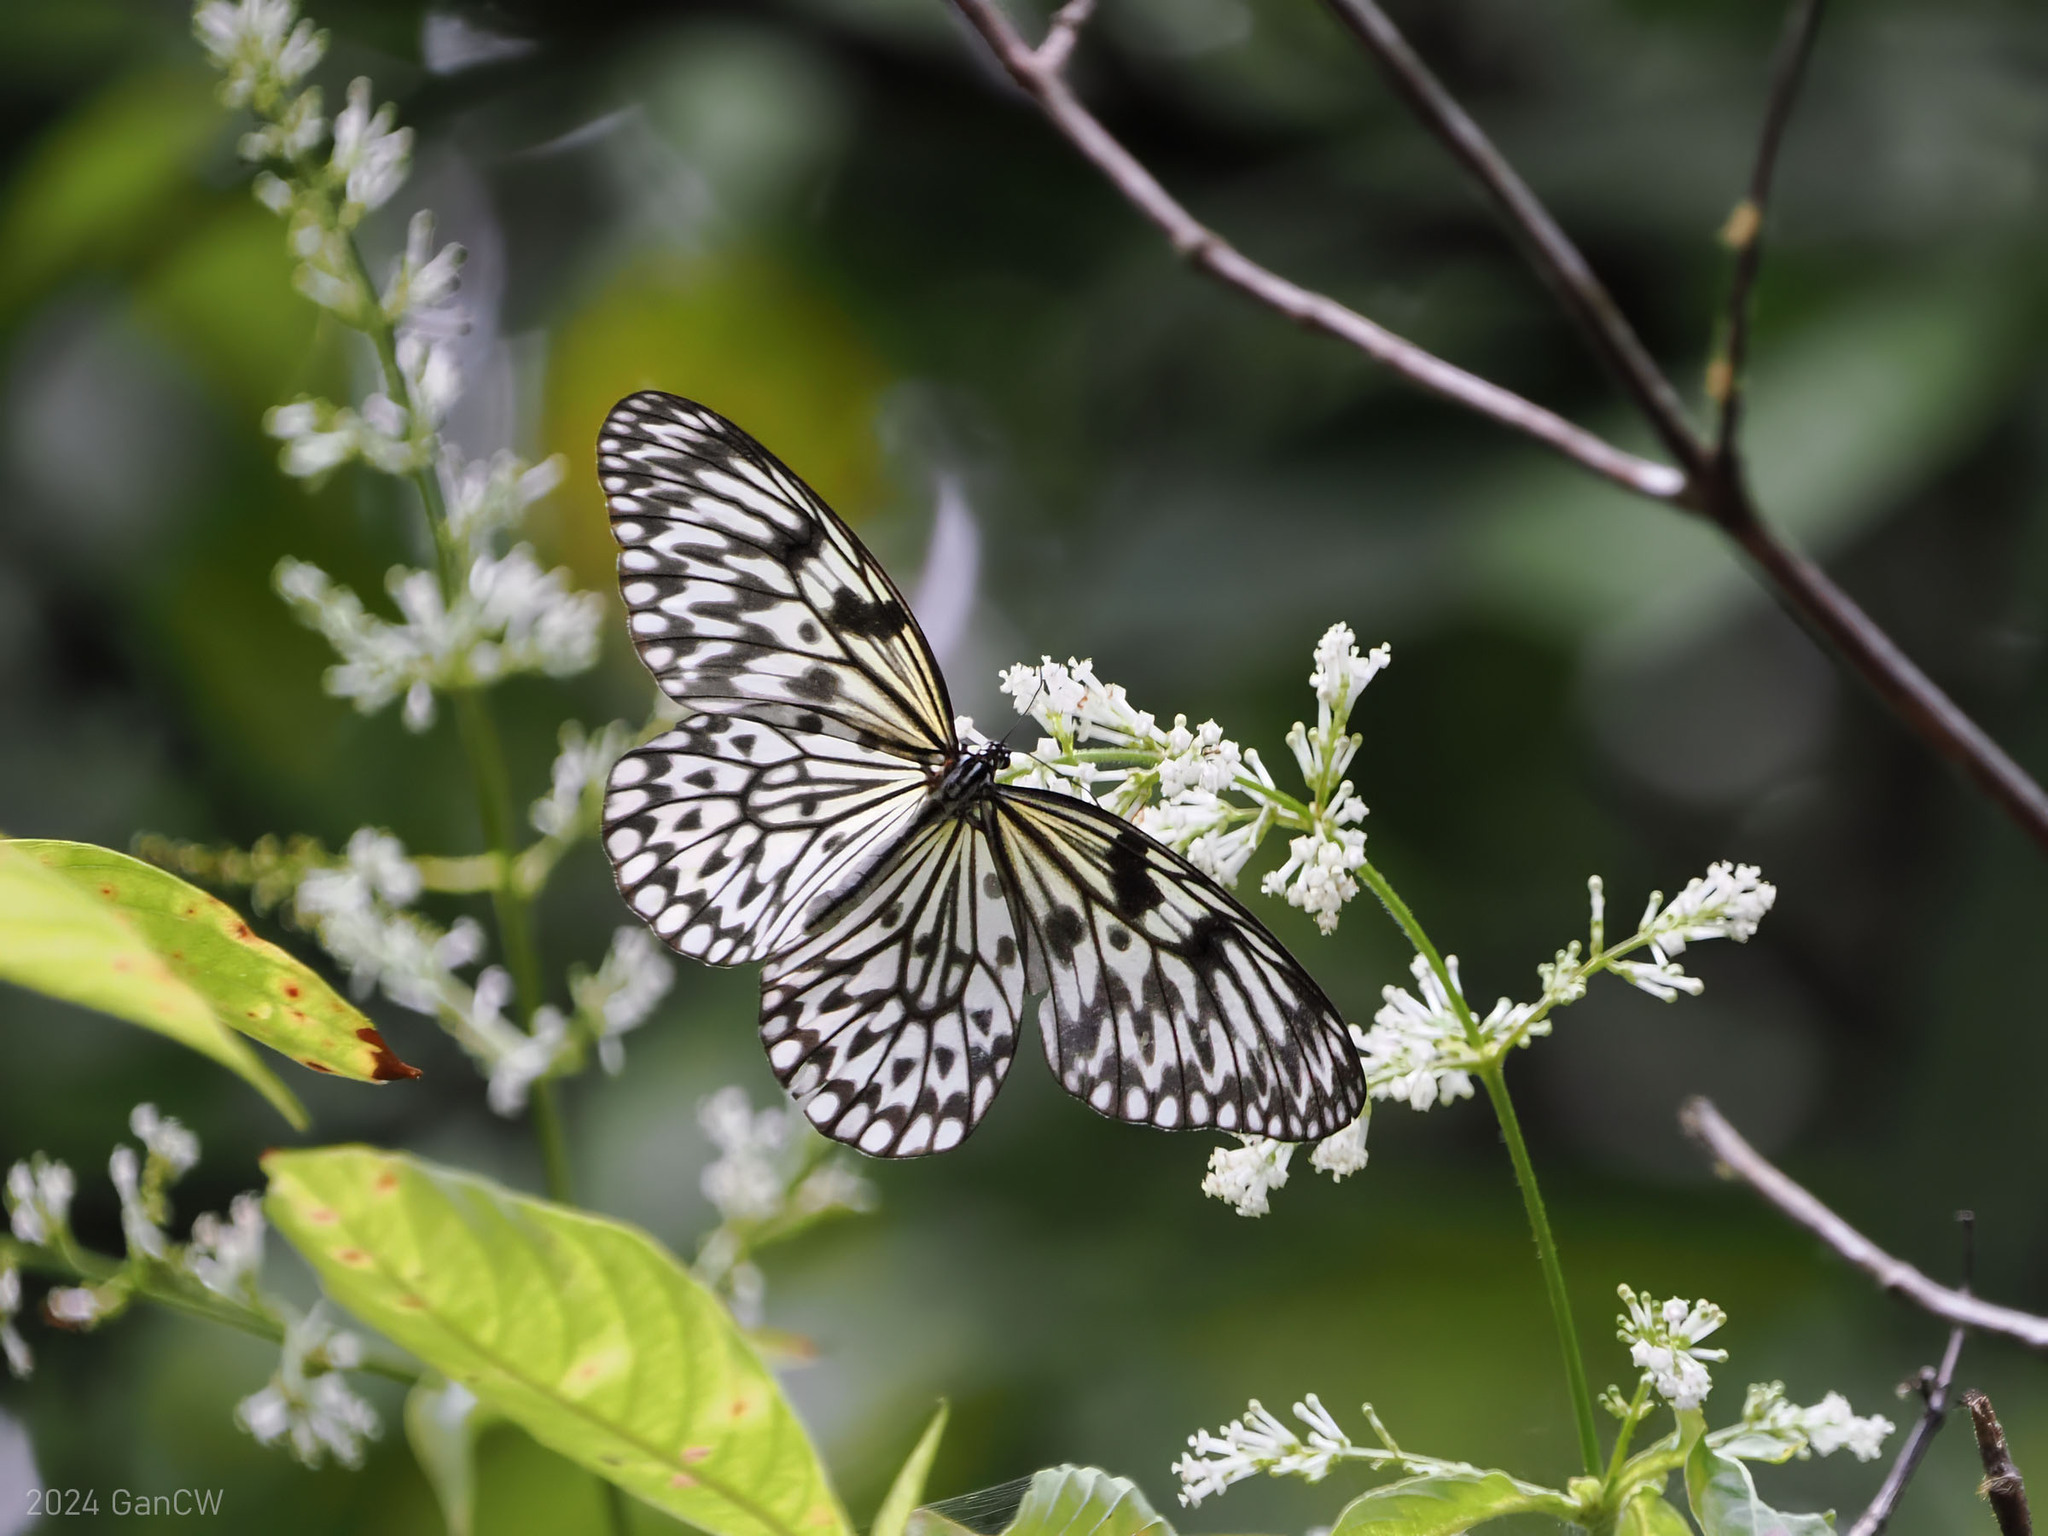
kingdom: Animalia
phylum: Arthropoda
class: Insecta
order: Lepidoptera
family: Nymphalidae
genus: Idea
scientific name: Idea leuconoe
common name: Rice paper butterfly
